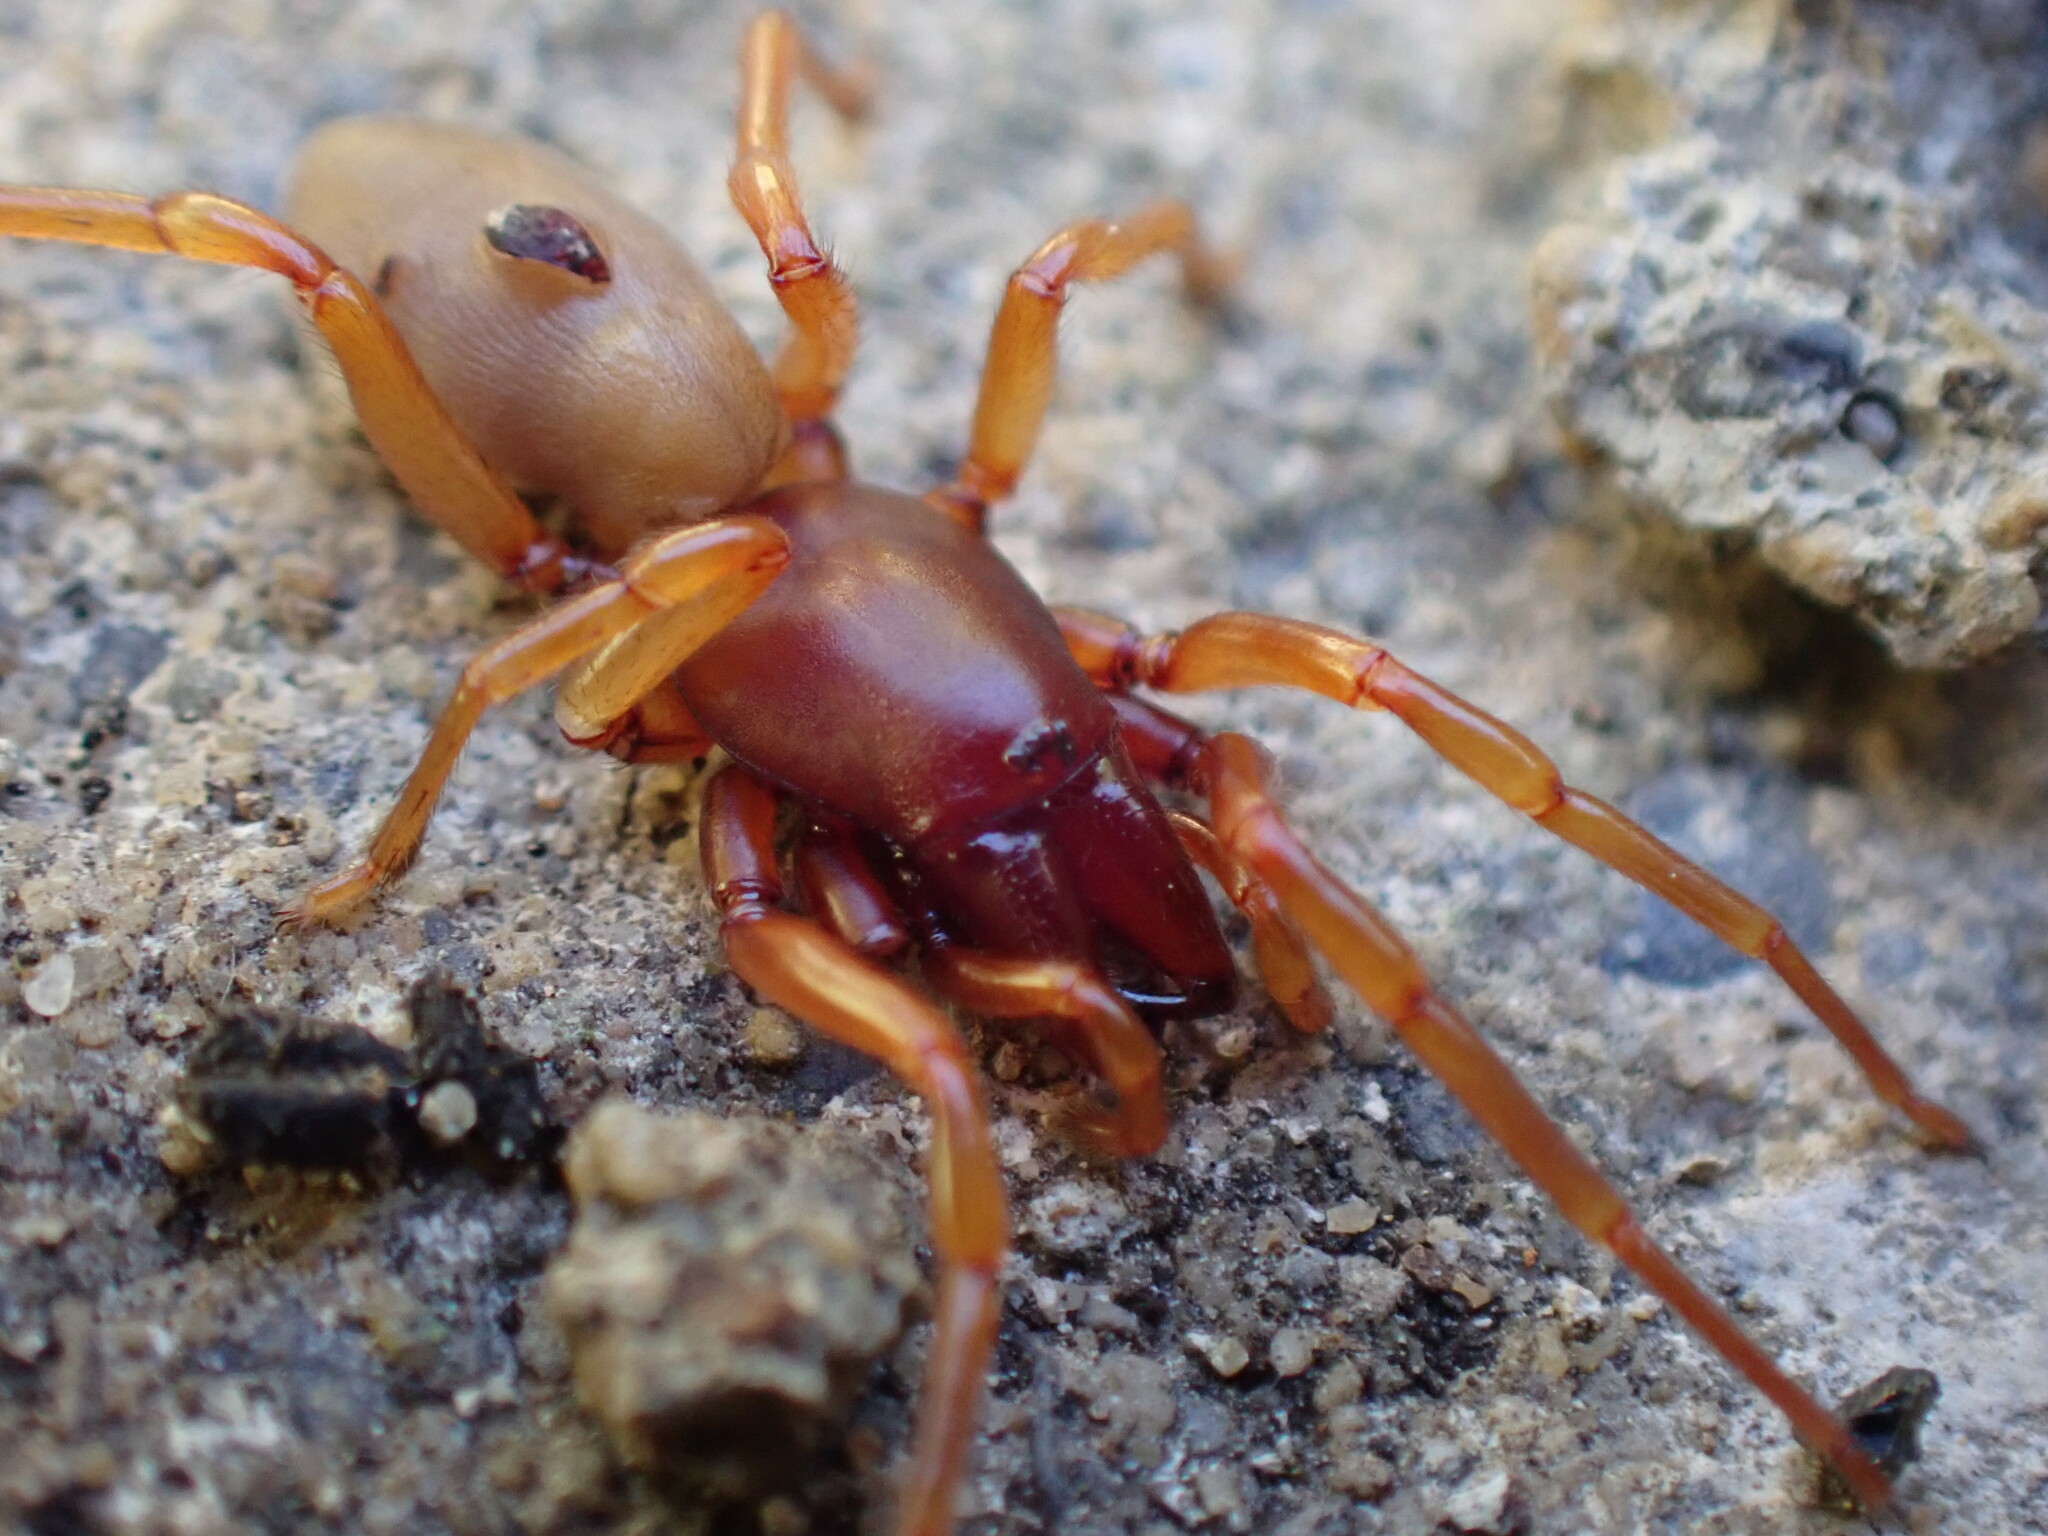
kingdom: Animalia
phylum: Arthropoda
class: Arachnida
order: Araneae
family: Dysderidae
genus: Dysdera
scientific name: Dysdera crocata
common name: Woodlouse spider
